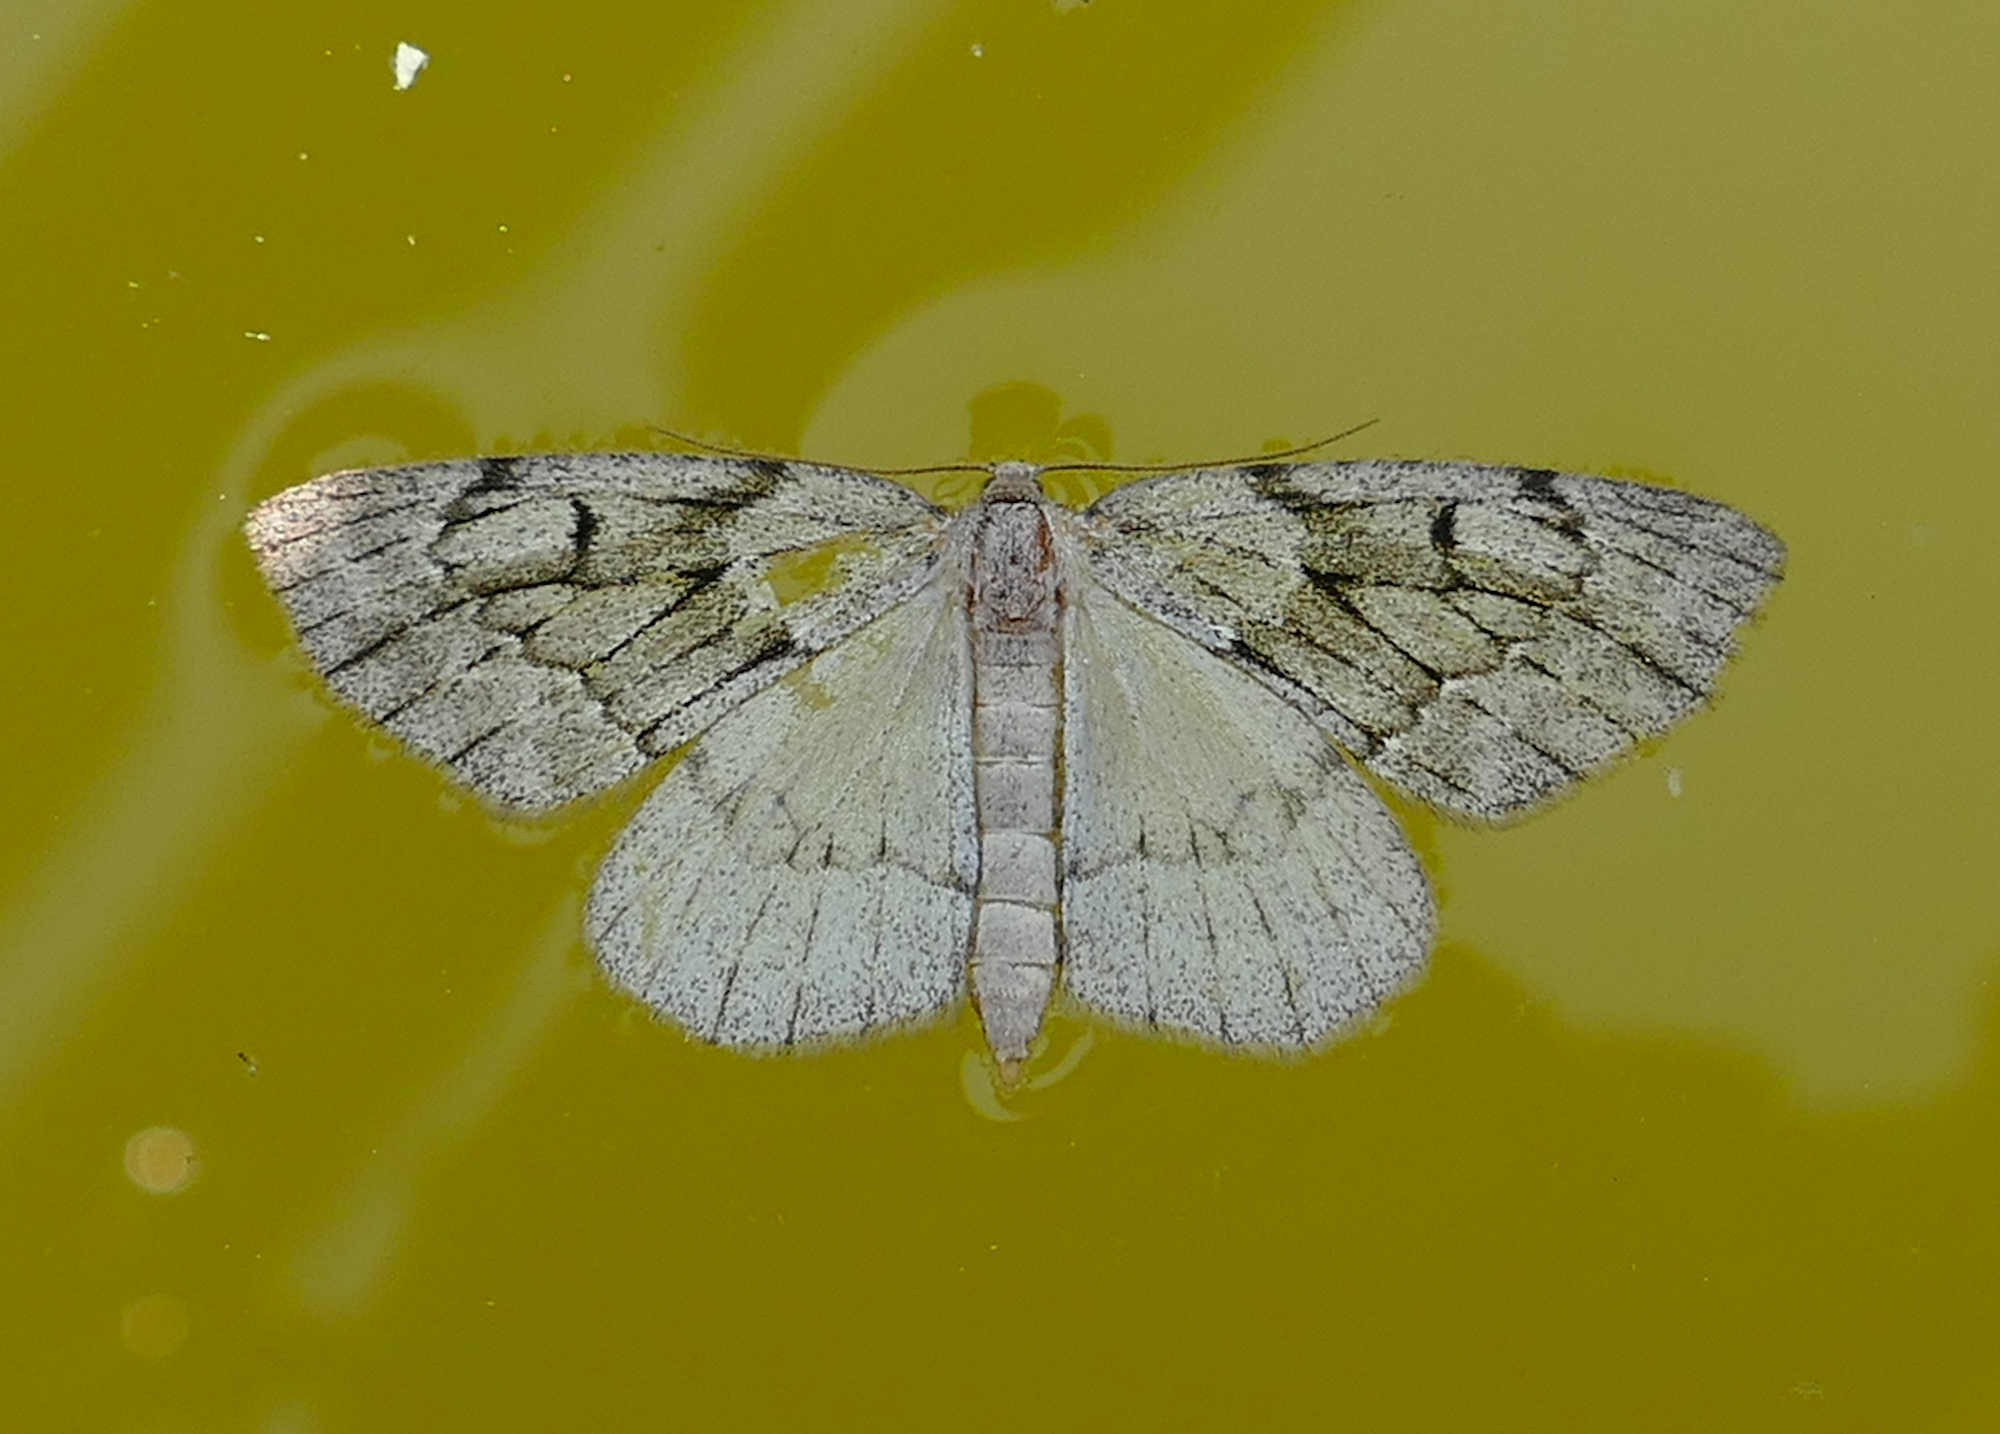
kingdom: Animalia
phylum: Arthropoda
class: Insecta
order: Lepidoptera
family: Geometridae
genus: Nepytia
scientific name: Nepytia swetti
